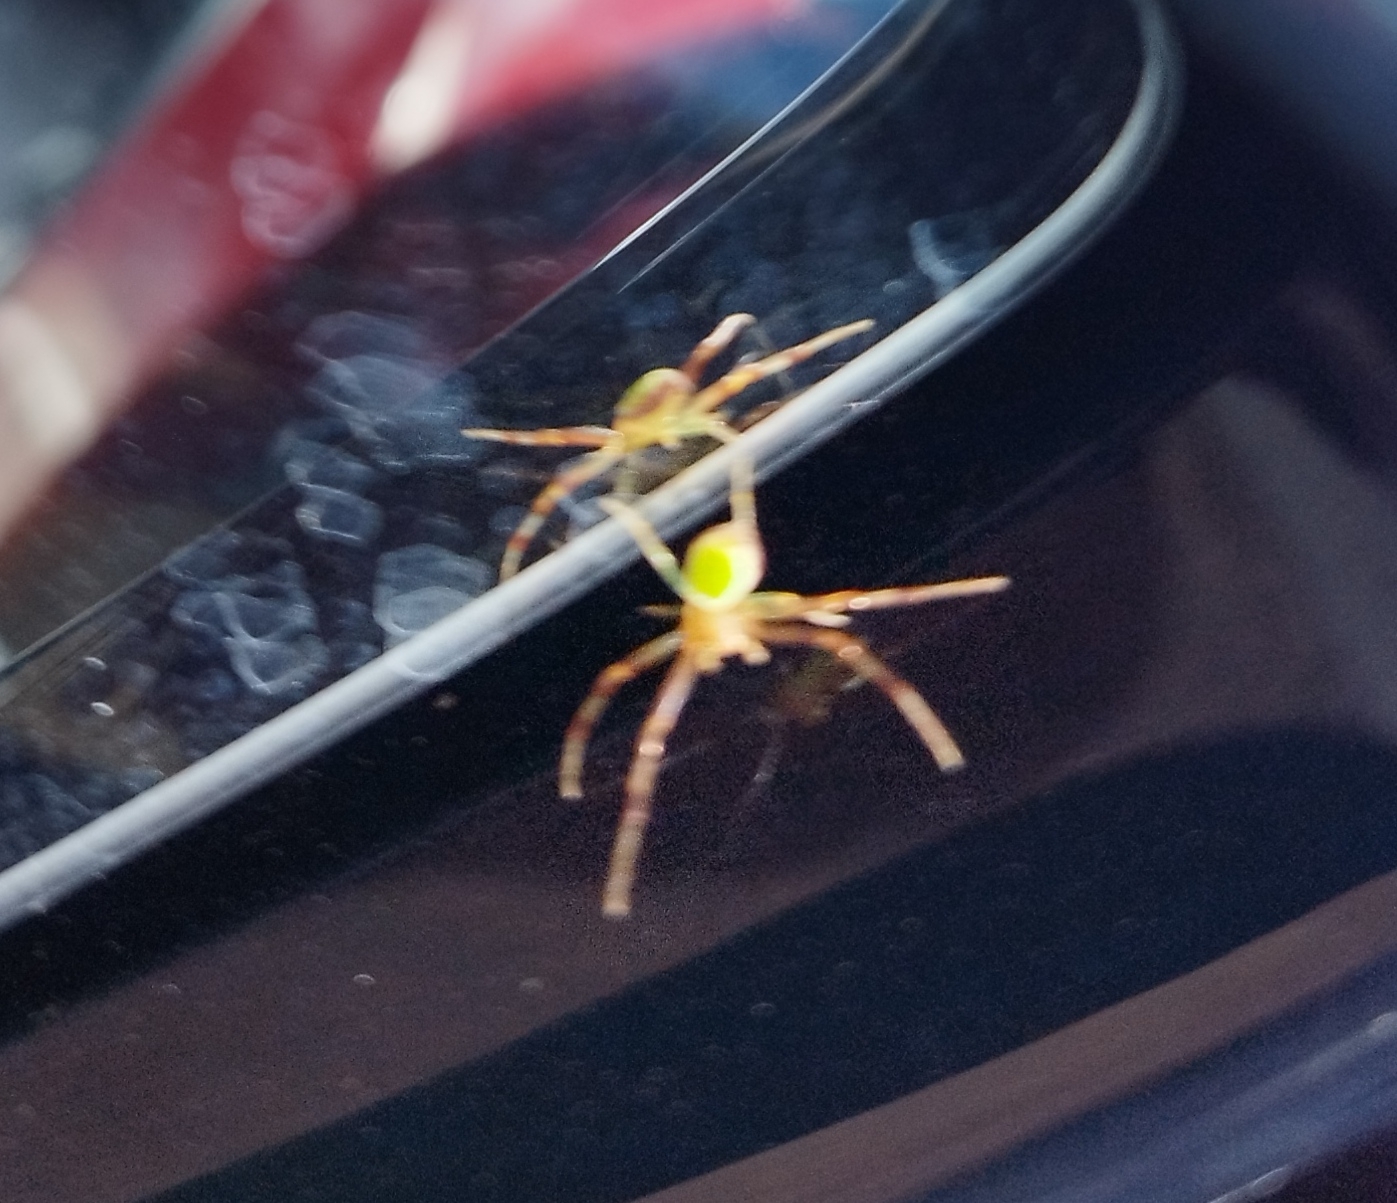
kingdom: Animalia
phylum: Arthropoda
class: Arachnida
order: Araneae
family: Thomisidae
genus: Ebrechtella
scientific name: Ebrechtella tricuspidata
